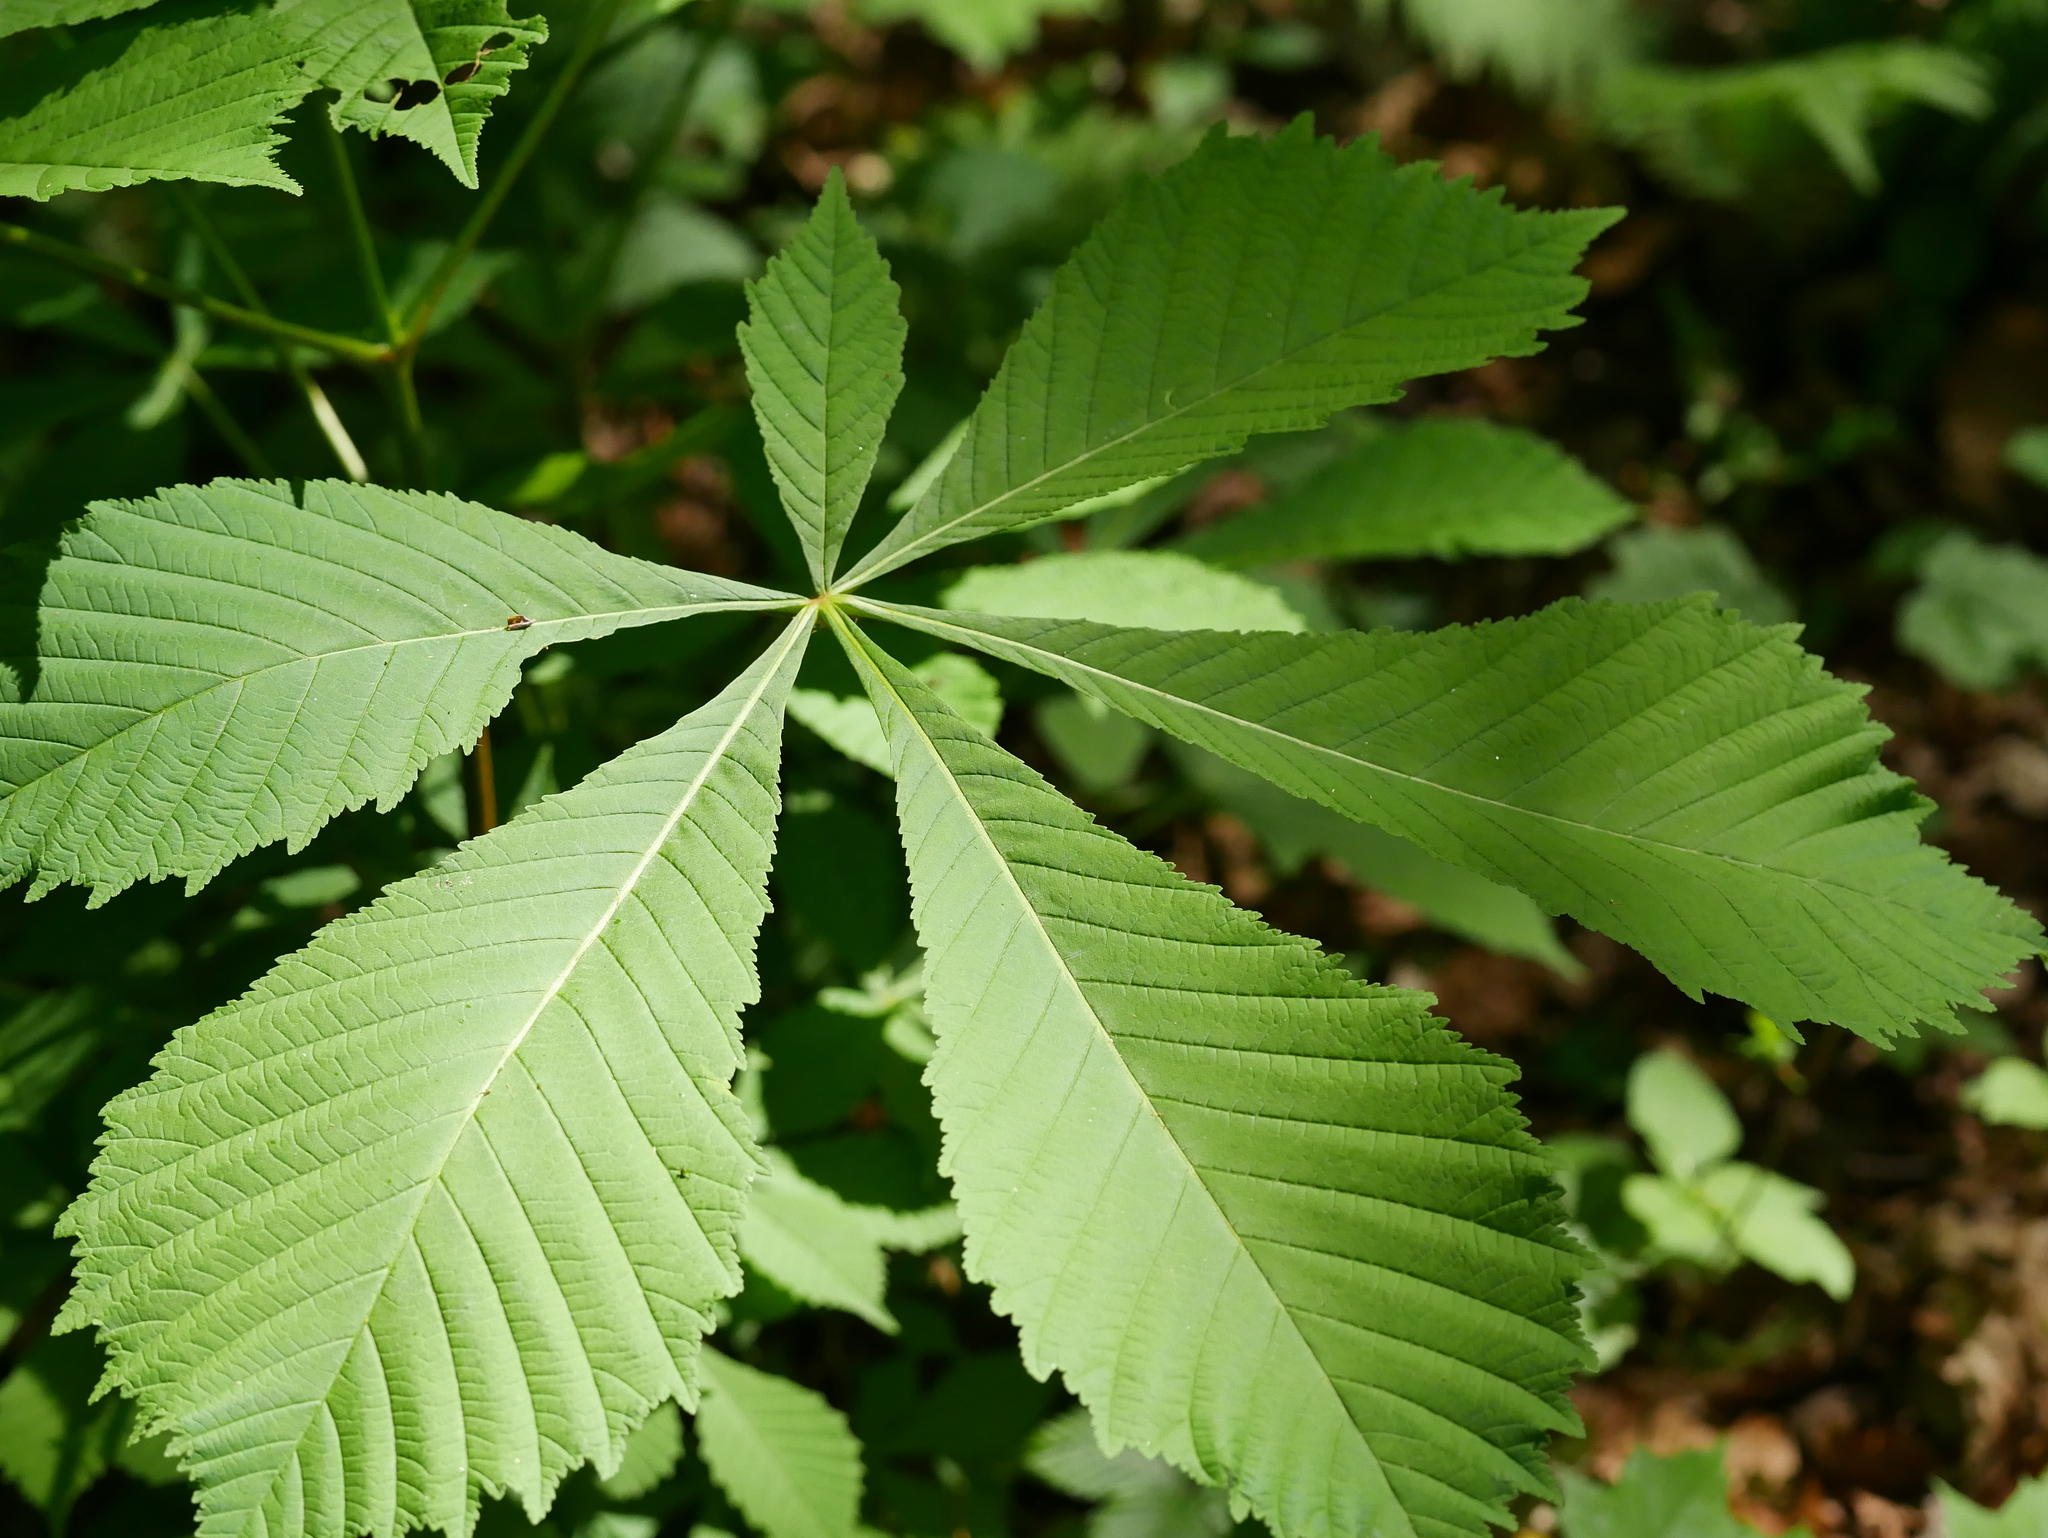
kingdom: Plantae
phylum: Tracheophyta
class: Magnoliopsida
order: Sapindales
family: Sapindaceae
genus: Aesculus
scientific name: Aesculus hippocastanum
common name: Horse-chestnut
